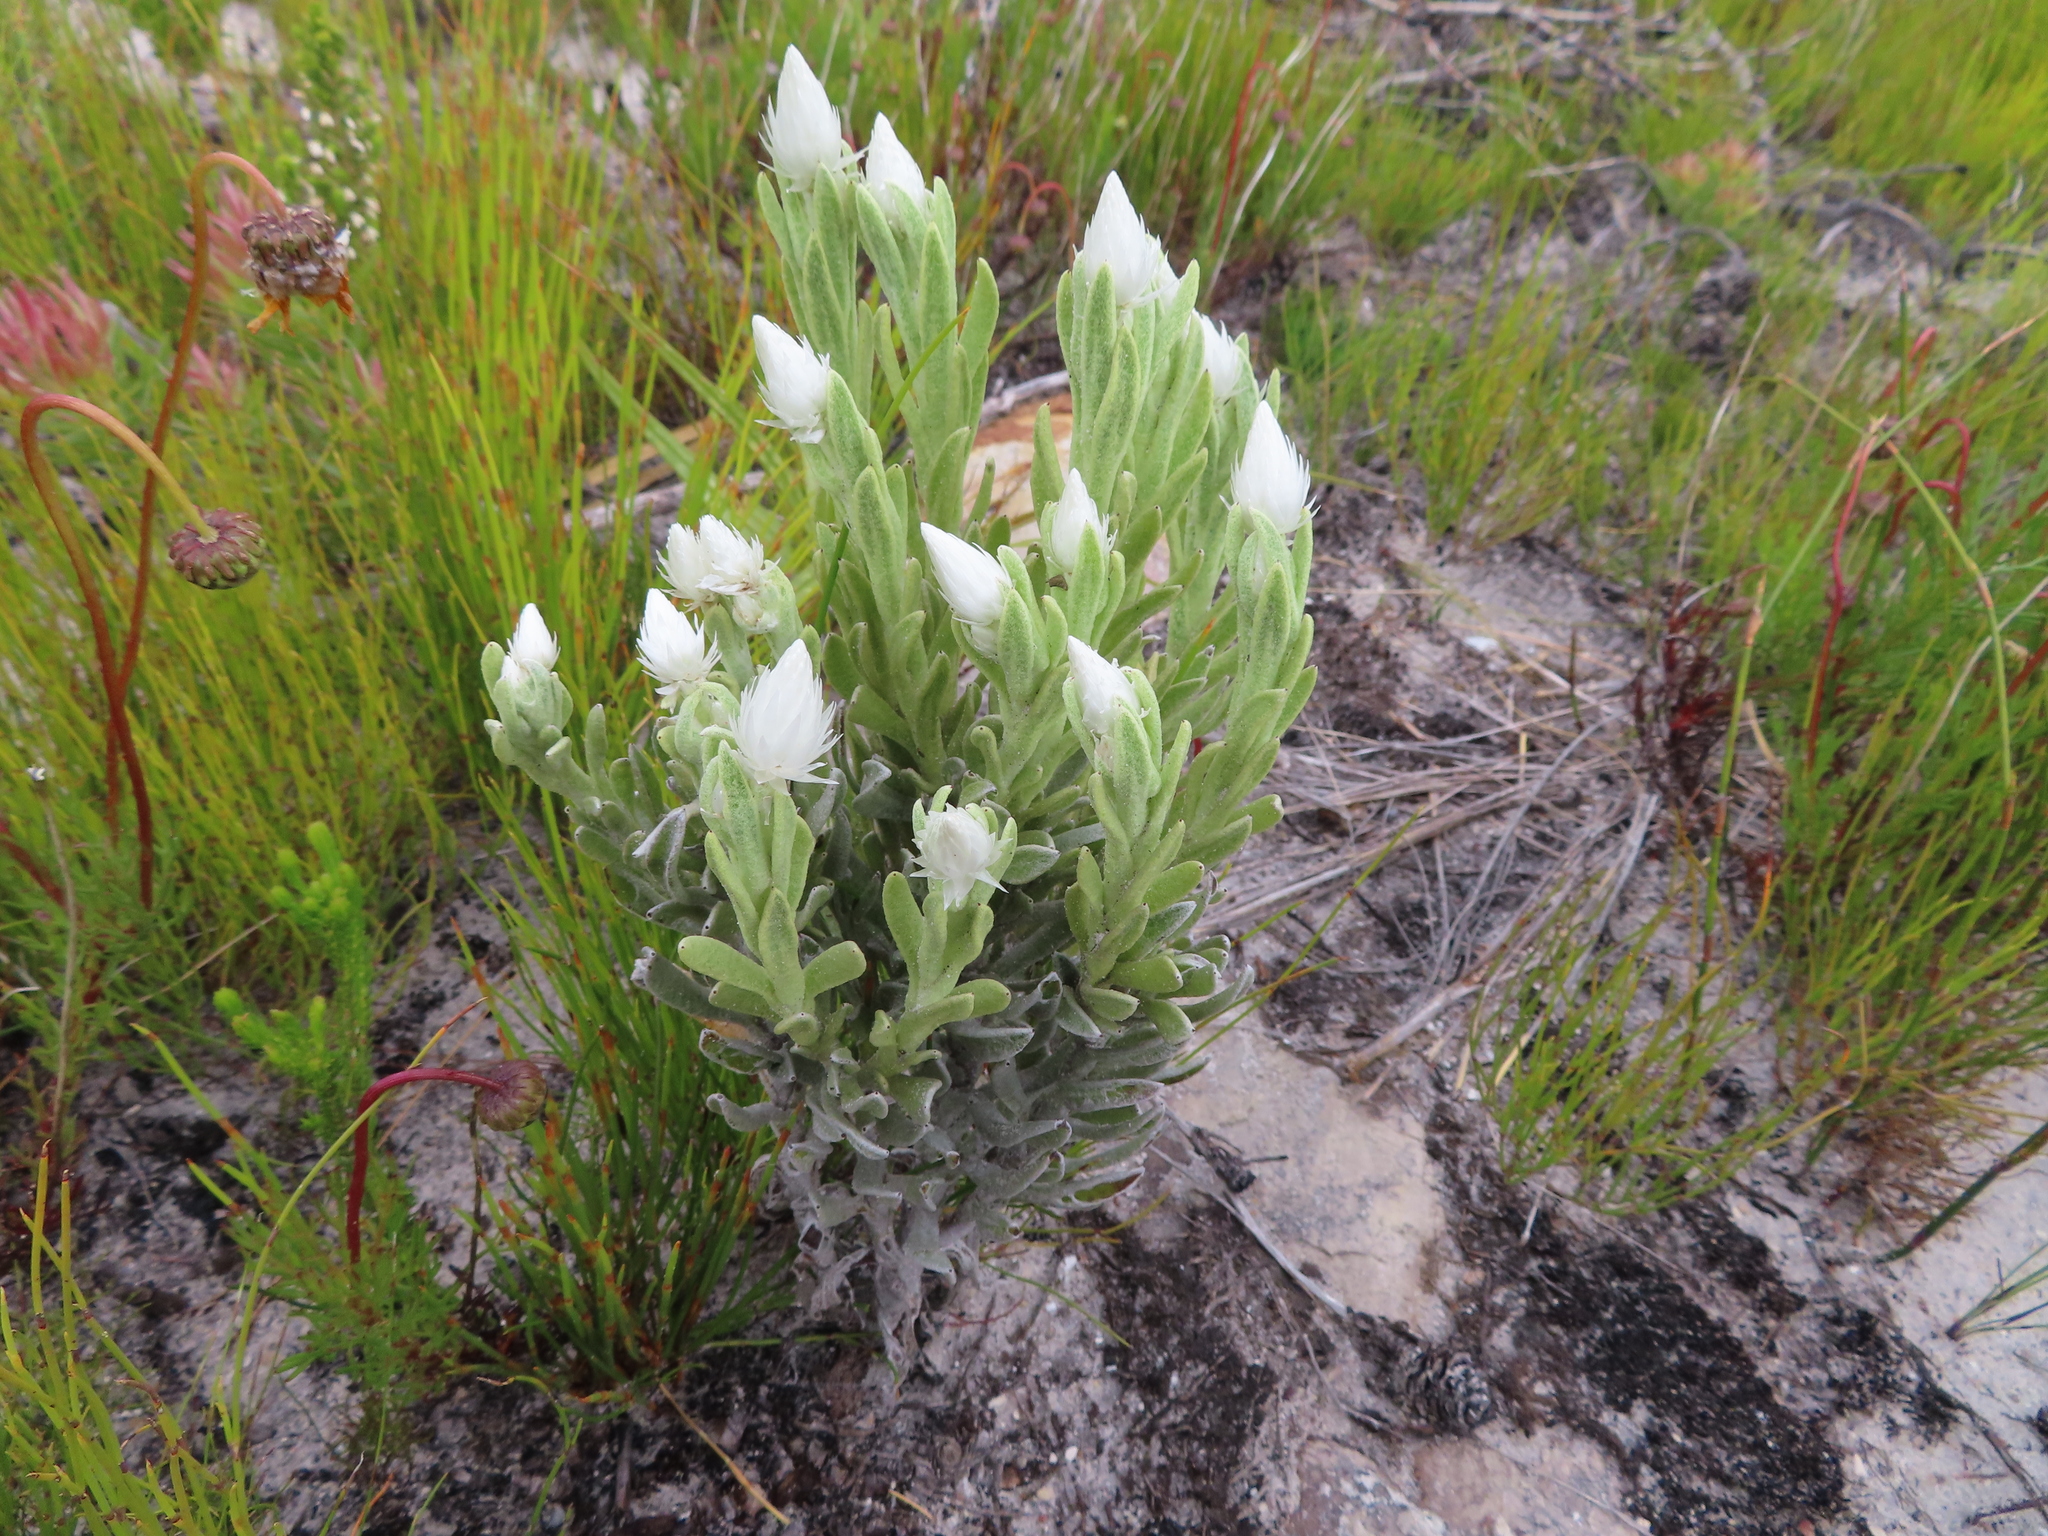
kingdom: Plantae
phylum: Tracheophyta
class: Magnoliopsida
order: Asterales
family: Asteraceae
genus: Syncarpha
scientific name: Syncarpha vestita
